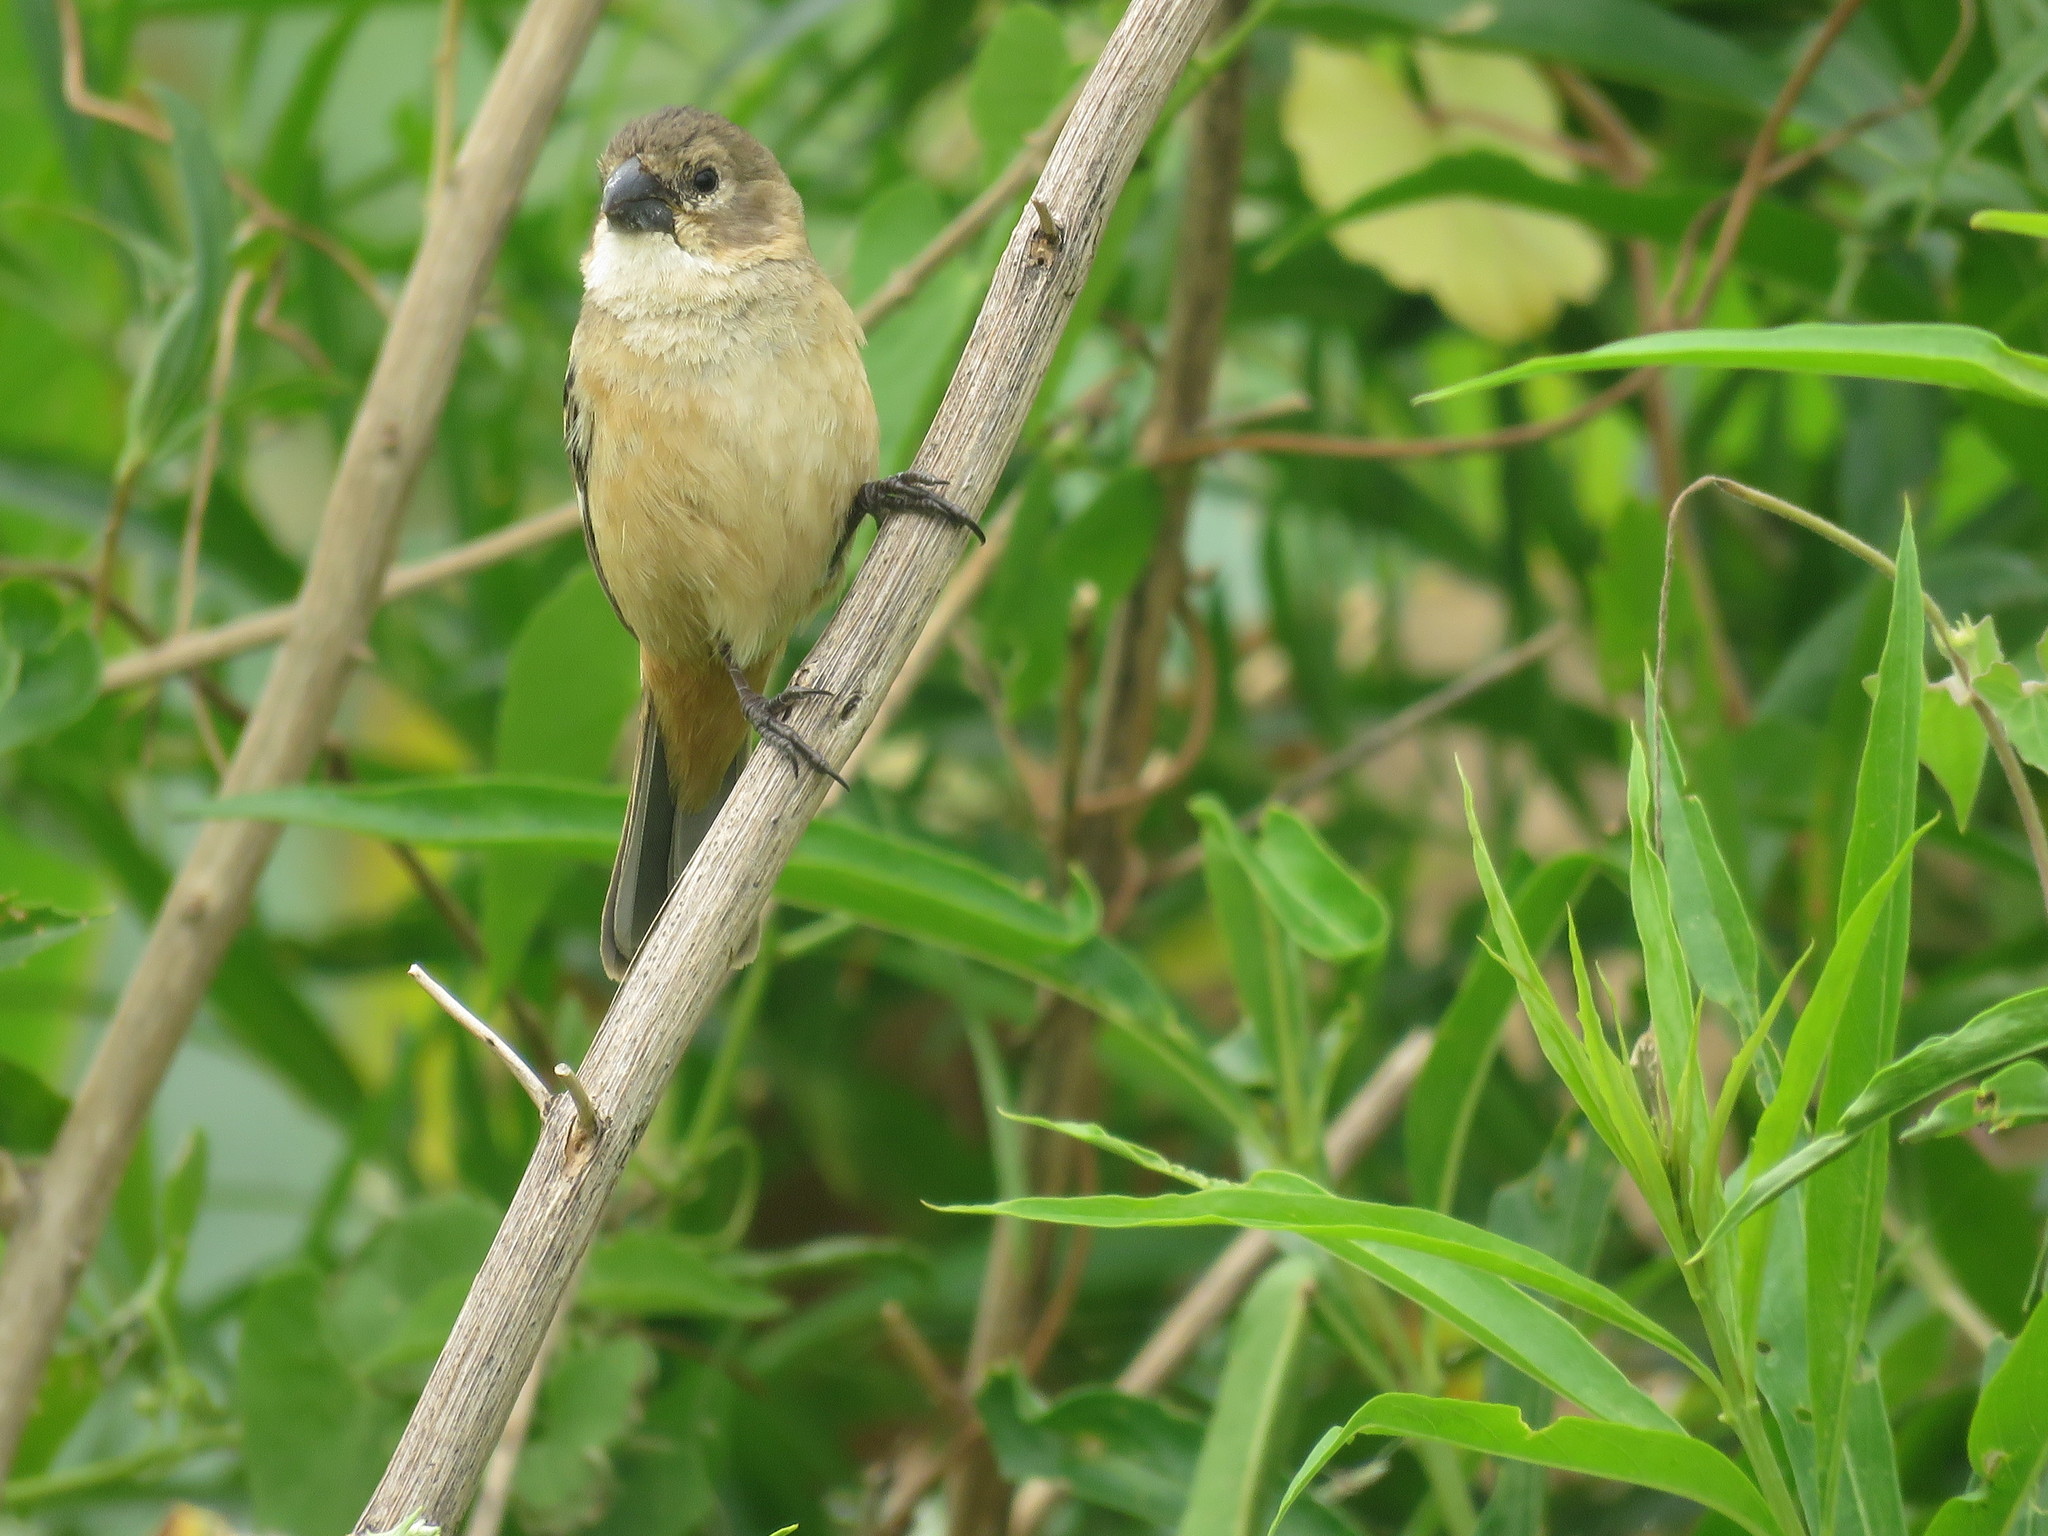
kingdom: Animalia
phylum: Chordata
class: Aves
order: Passeriformes
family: Thraupidae
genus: Sporophila
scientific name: Sporophila collaris
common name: Rusty-collared seedeater
